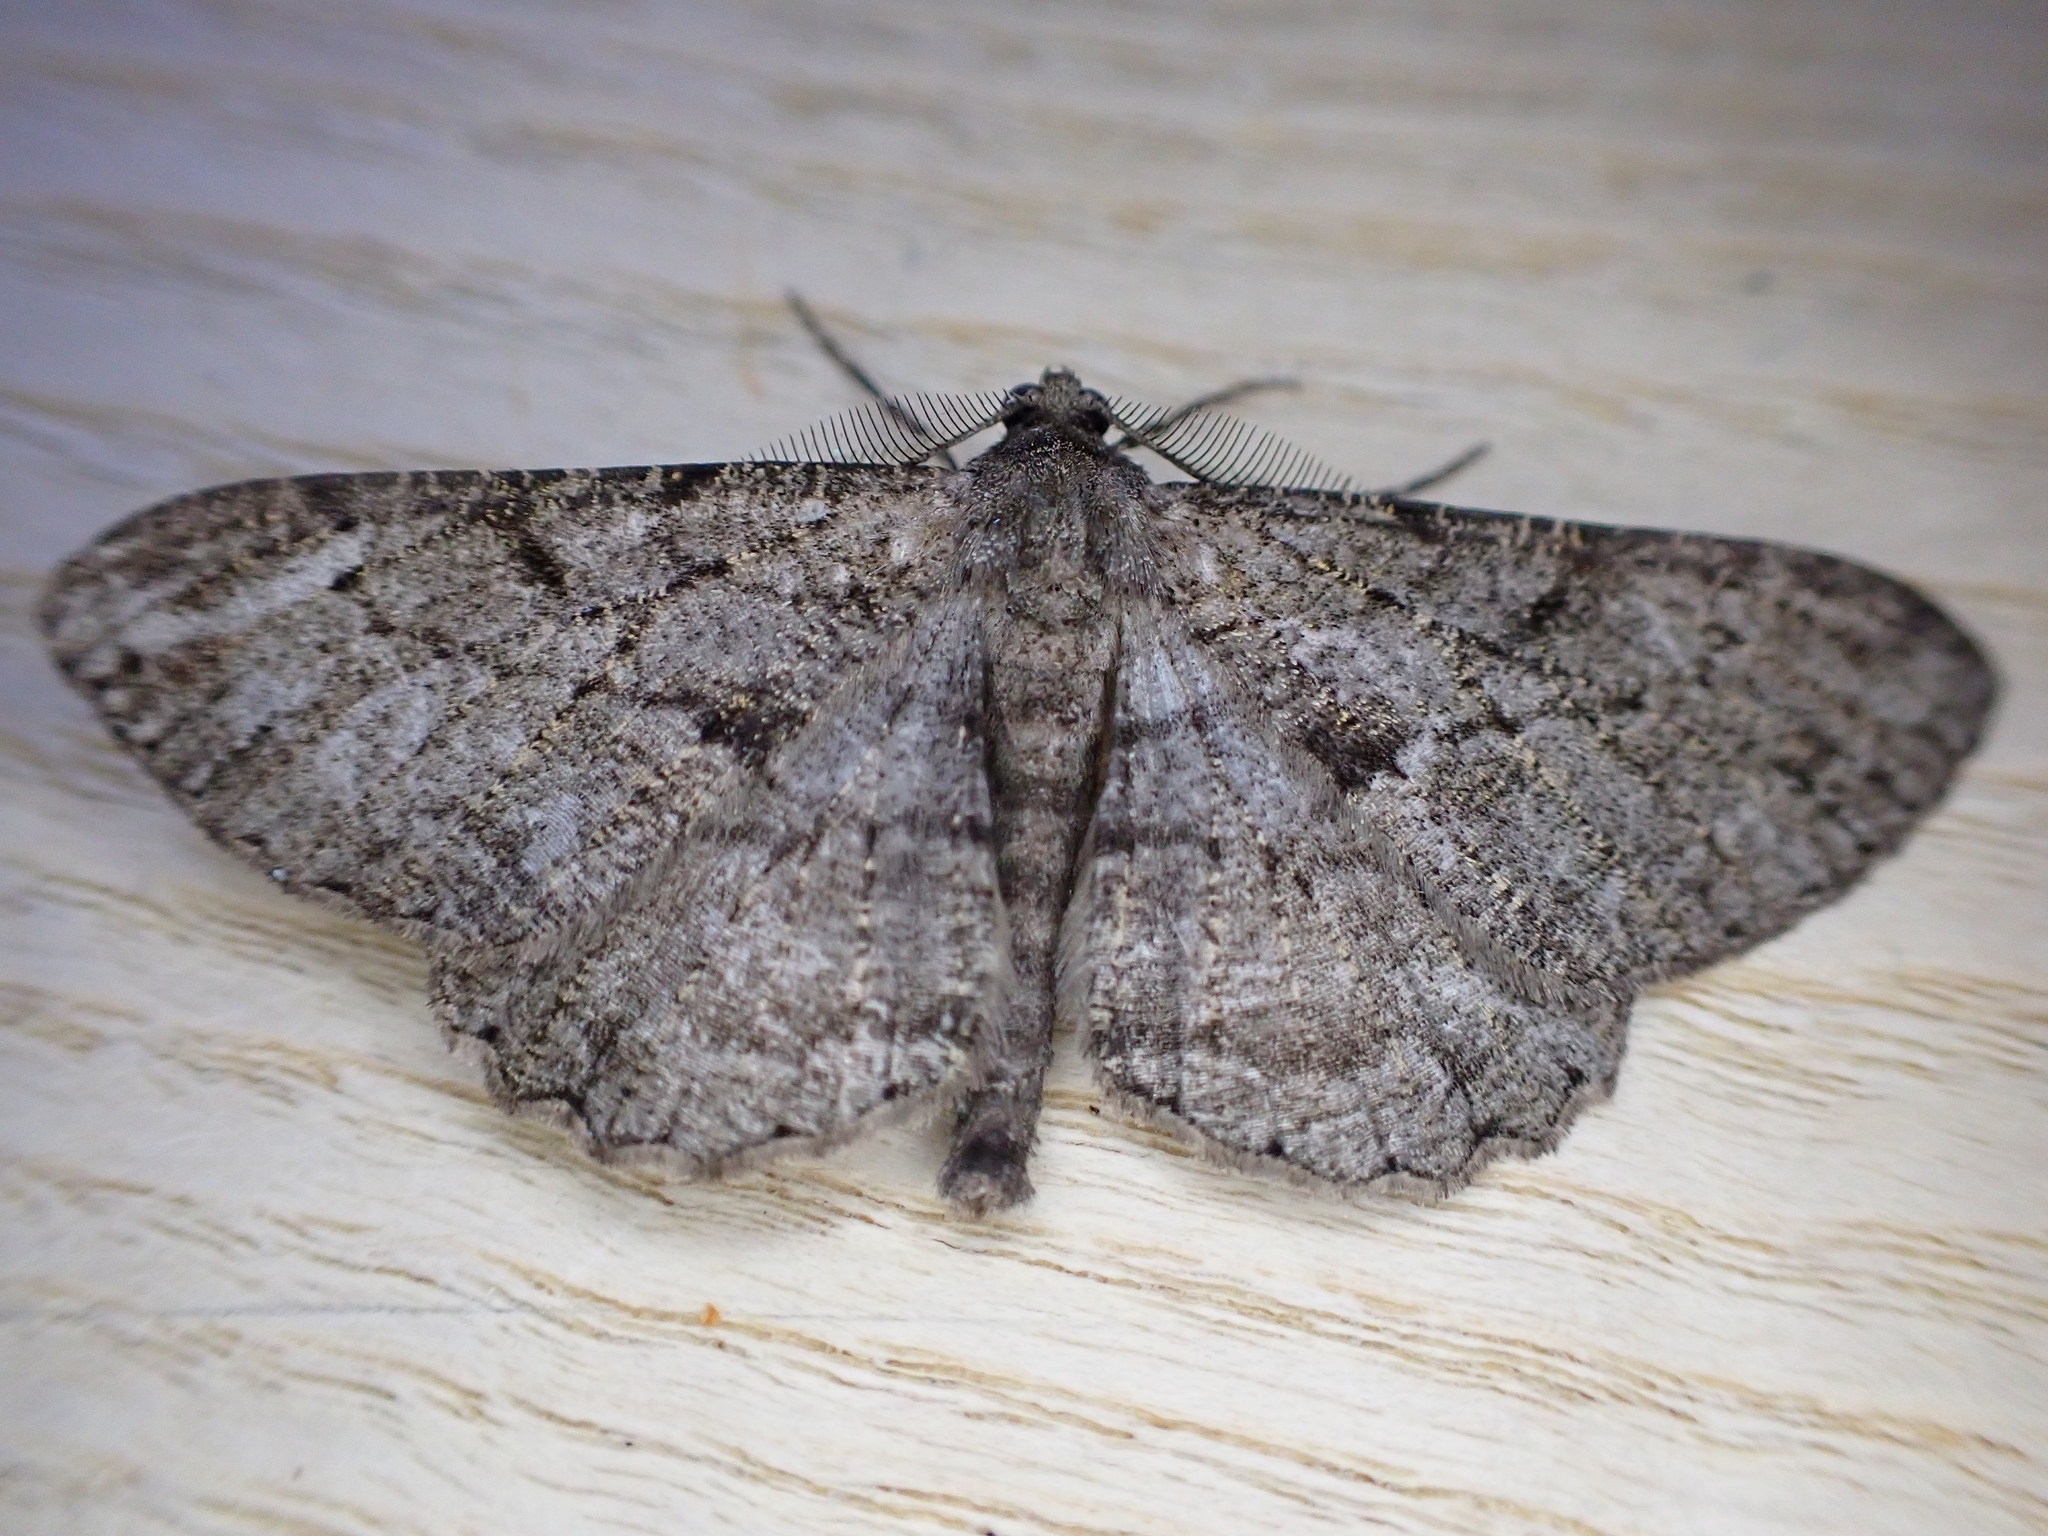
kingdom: Animalia
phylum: Arthropoda
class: Insecta
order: Lepidoptera
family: Geometridae
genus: Peribatodes
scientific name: Peribatodes rhomboidaria
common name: Willow beauty
